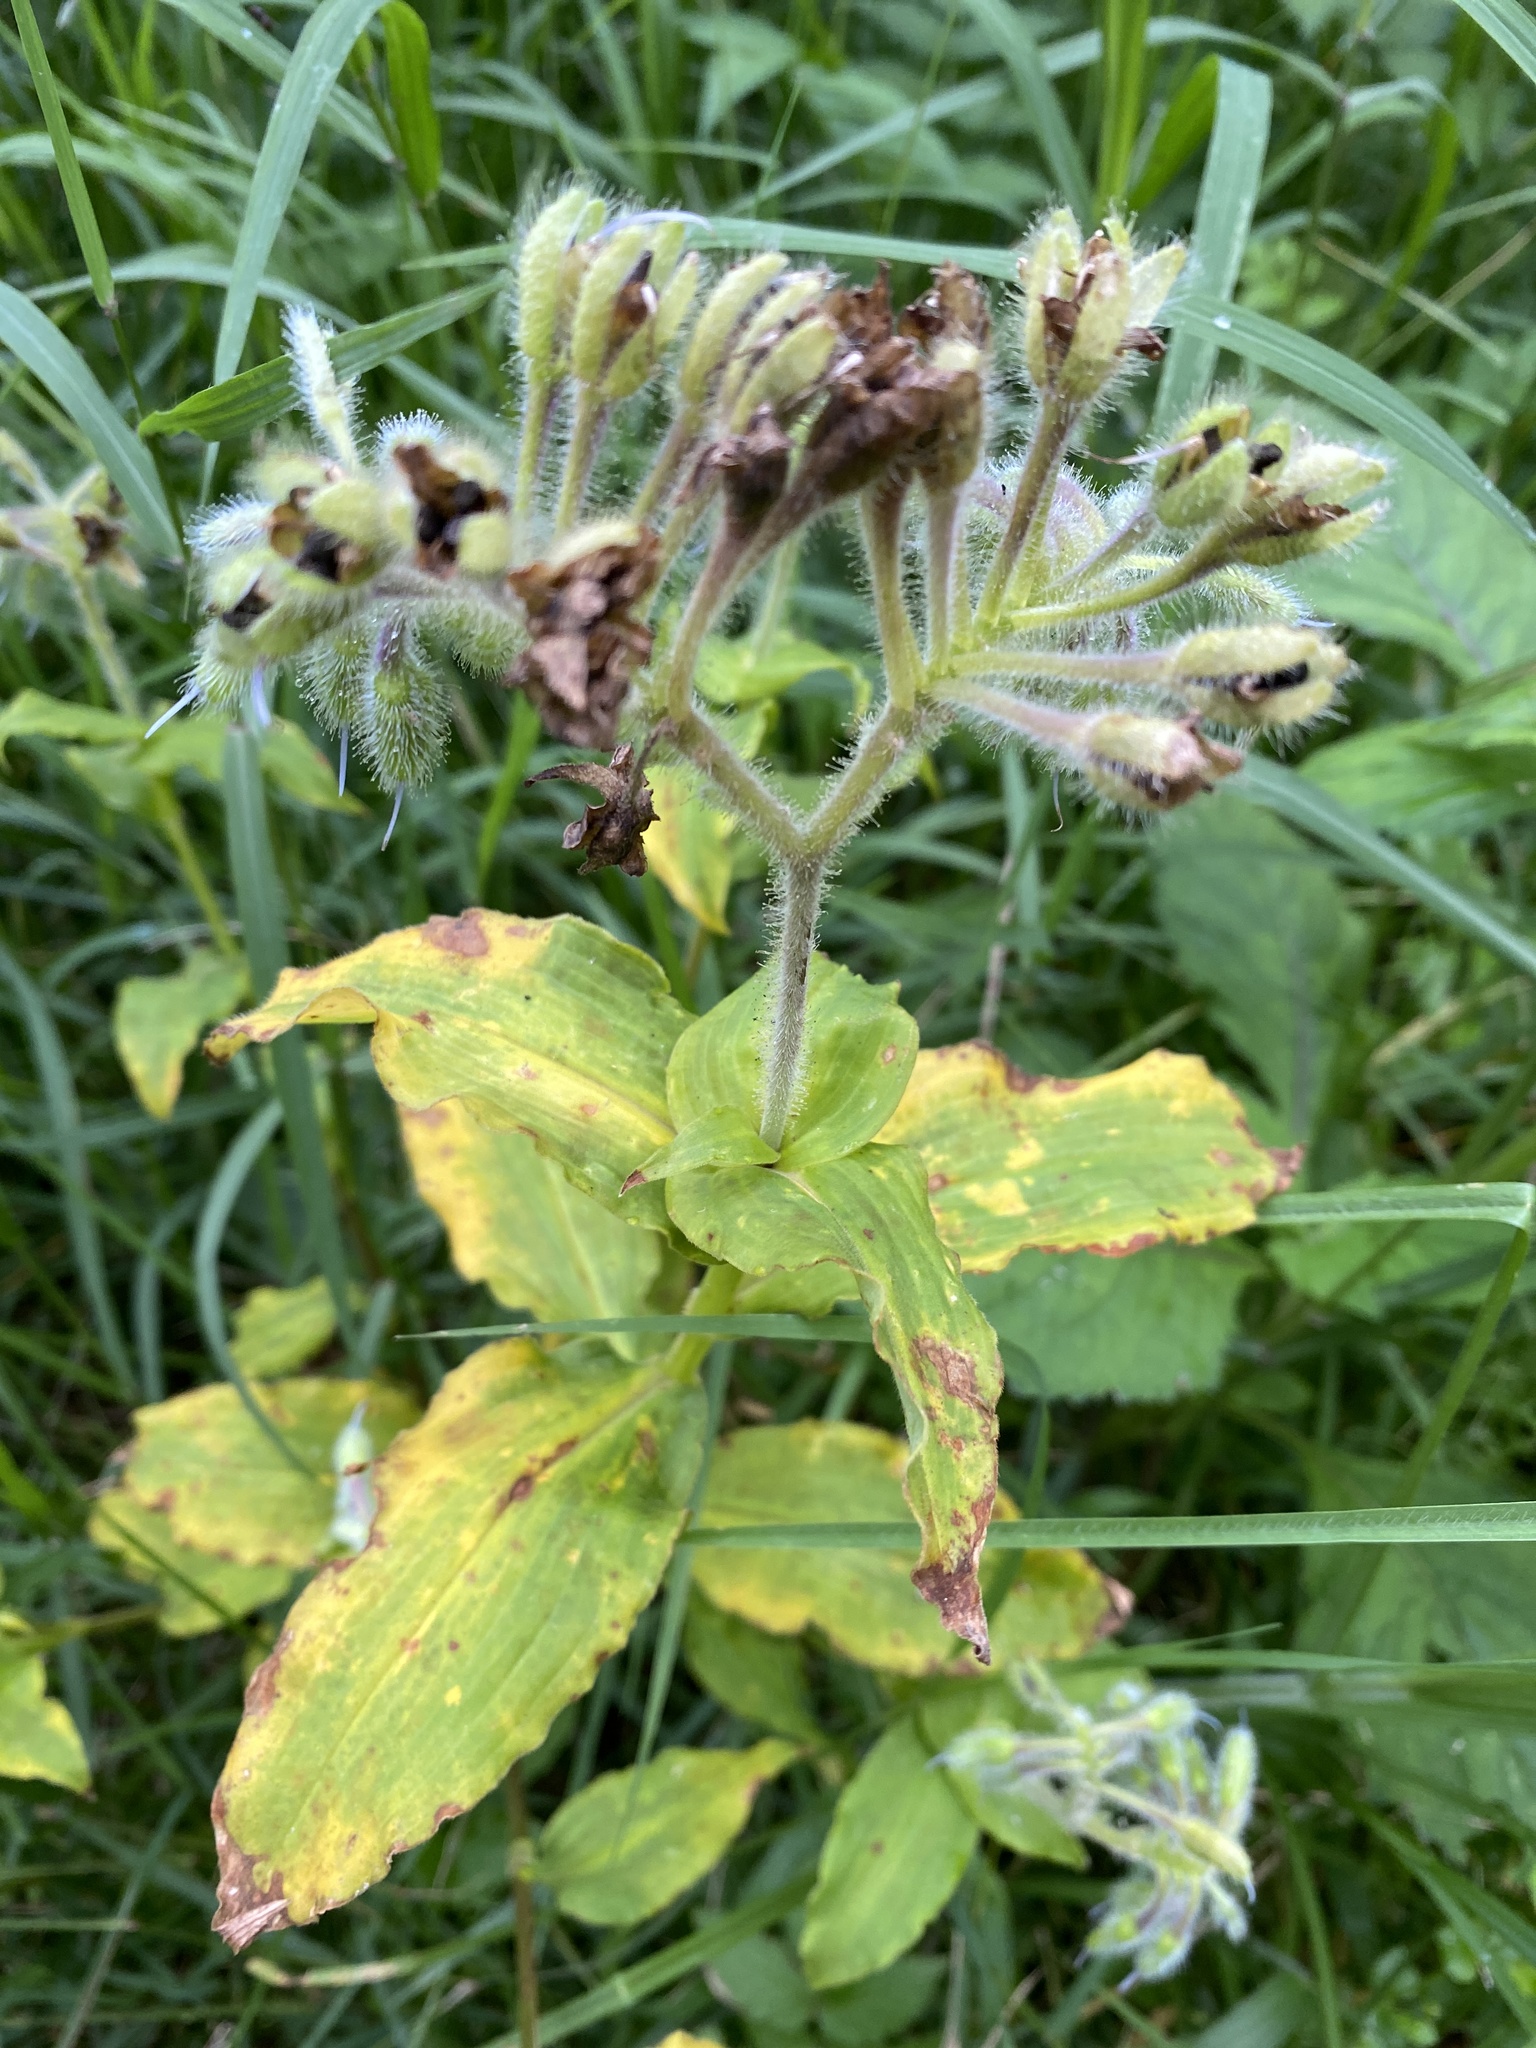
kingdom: Plantae
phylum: Tracheophyta
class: Liliopsida
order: Commelinales
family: Commelinaceae
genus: Tinantia
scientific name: Tinantia erecta
